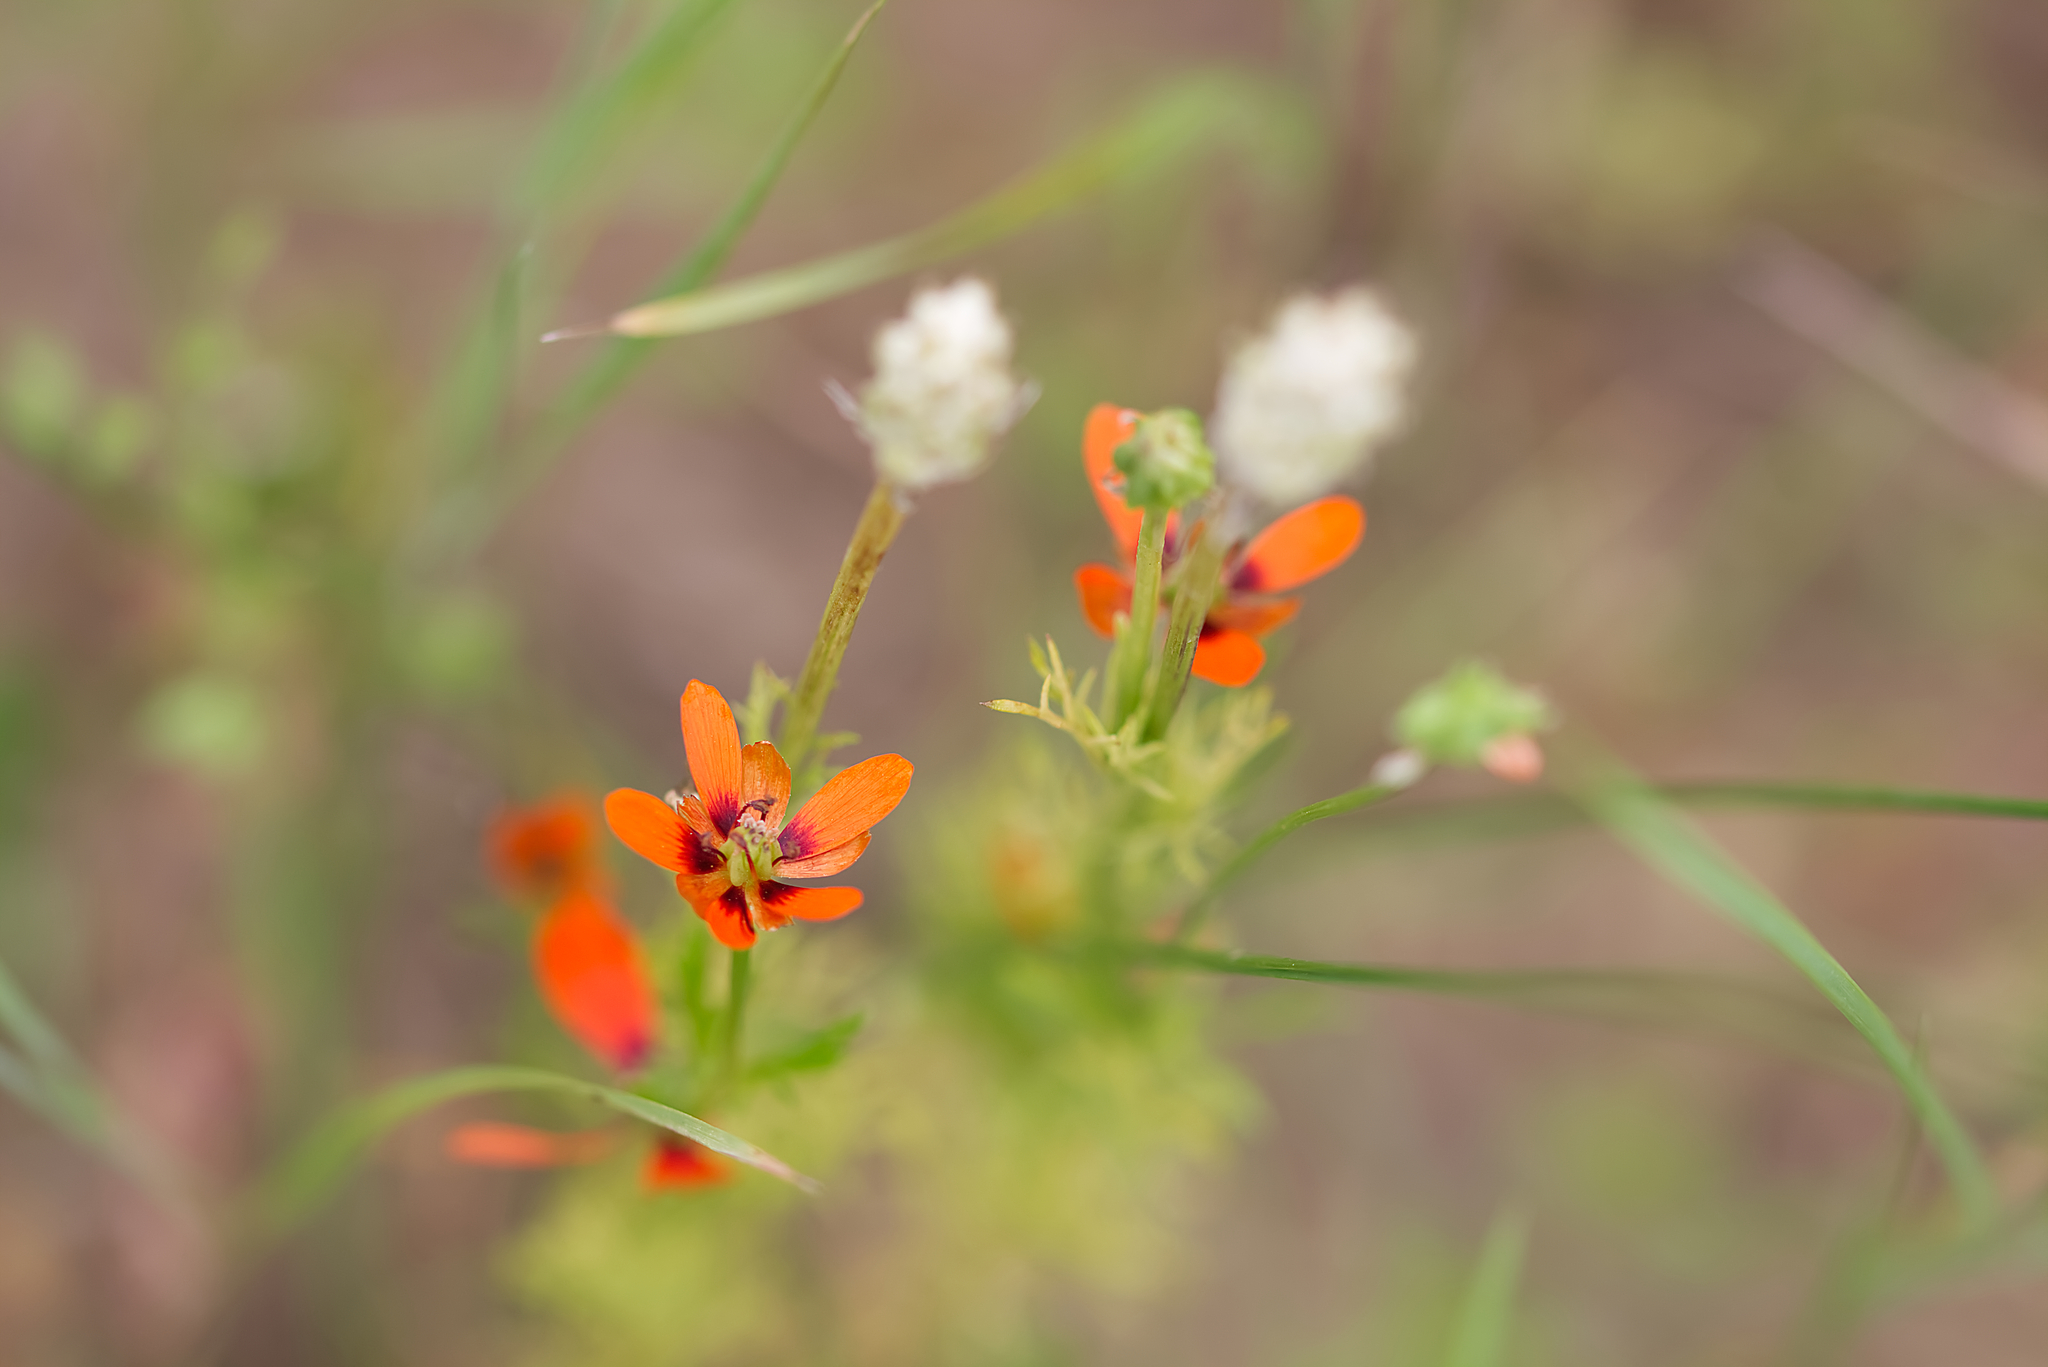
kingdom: Plantae
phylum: Tracheophyta
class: Magnoliopsida
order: Ranunculales
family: Ranunculaceae
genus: Adonis
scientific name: Adonis aestivalis
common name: Summer pheasant's-eye
